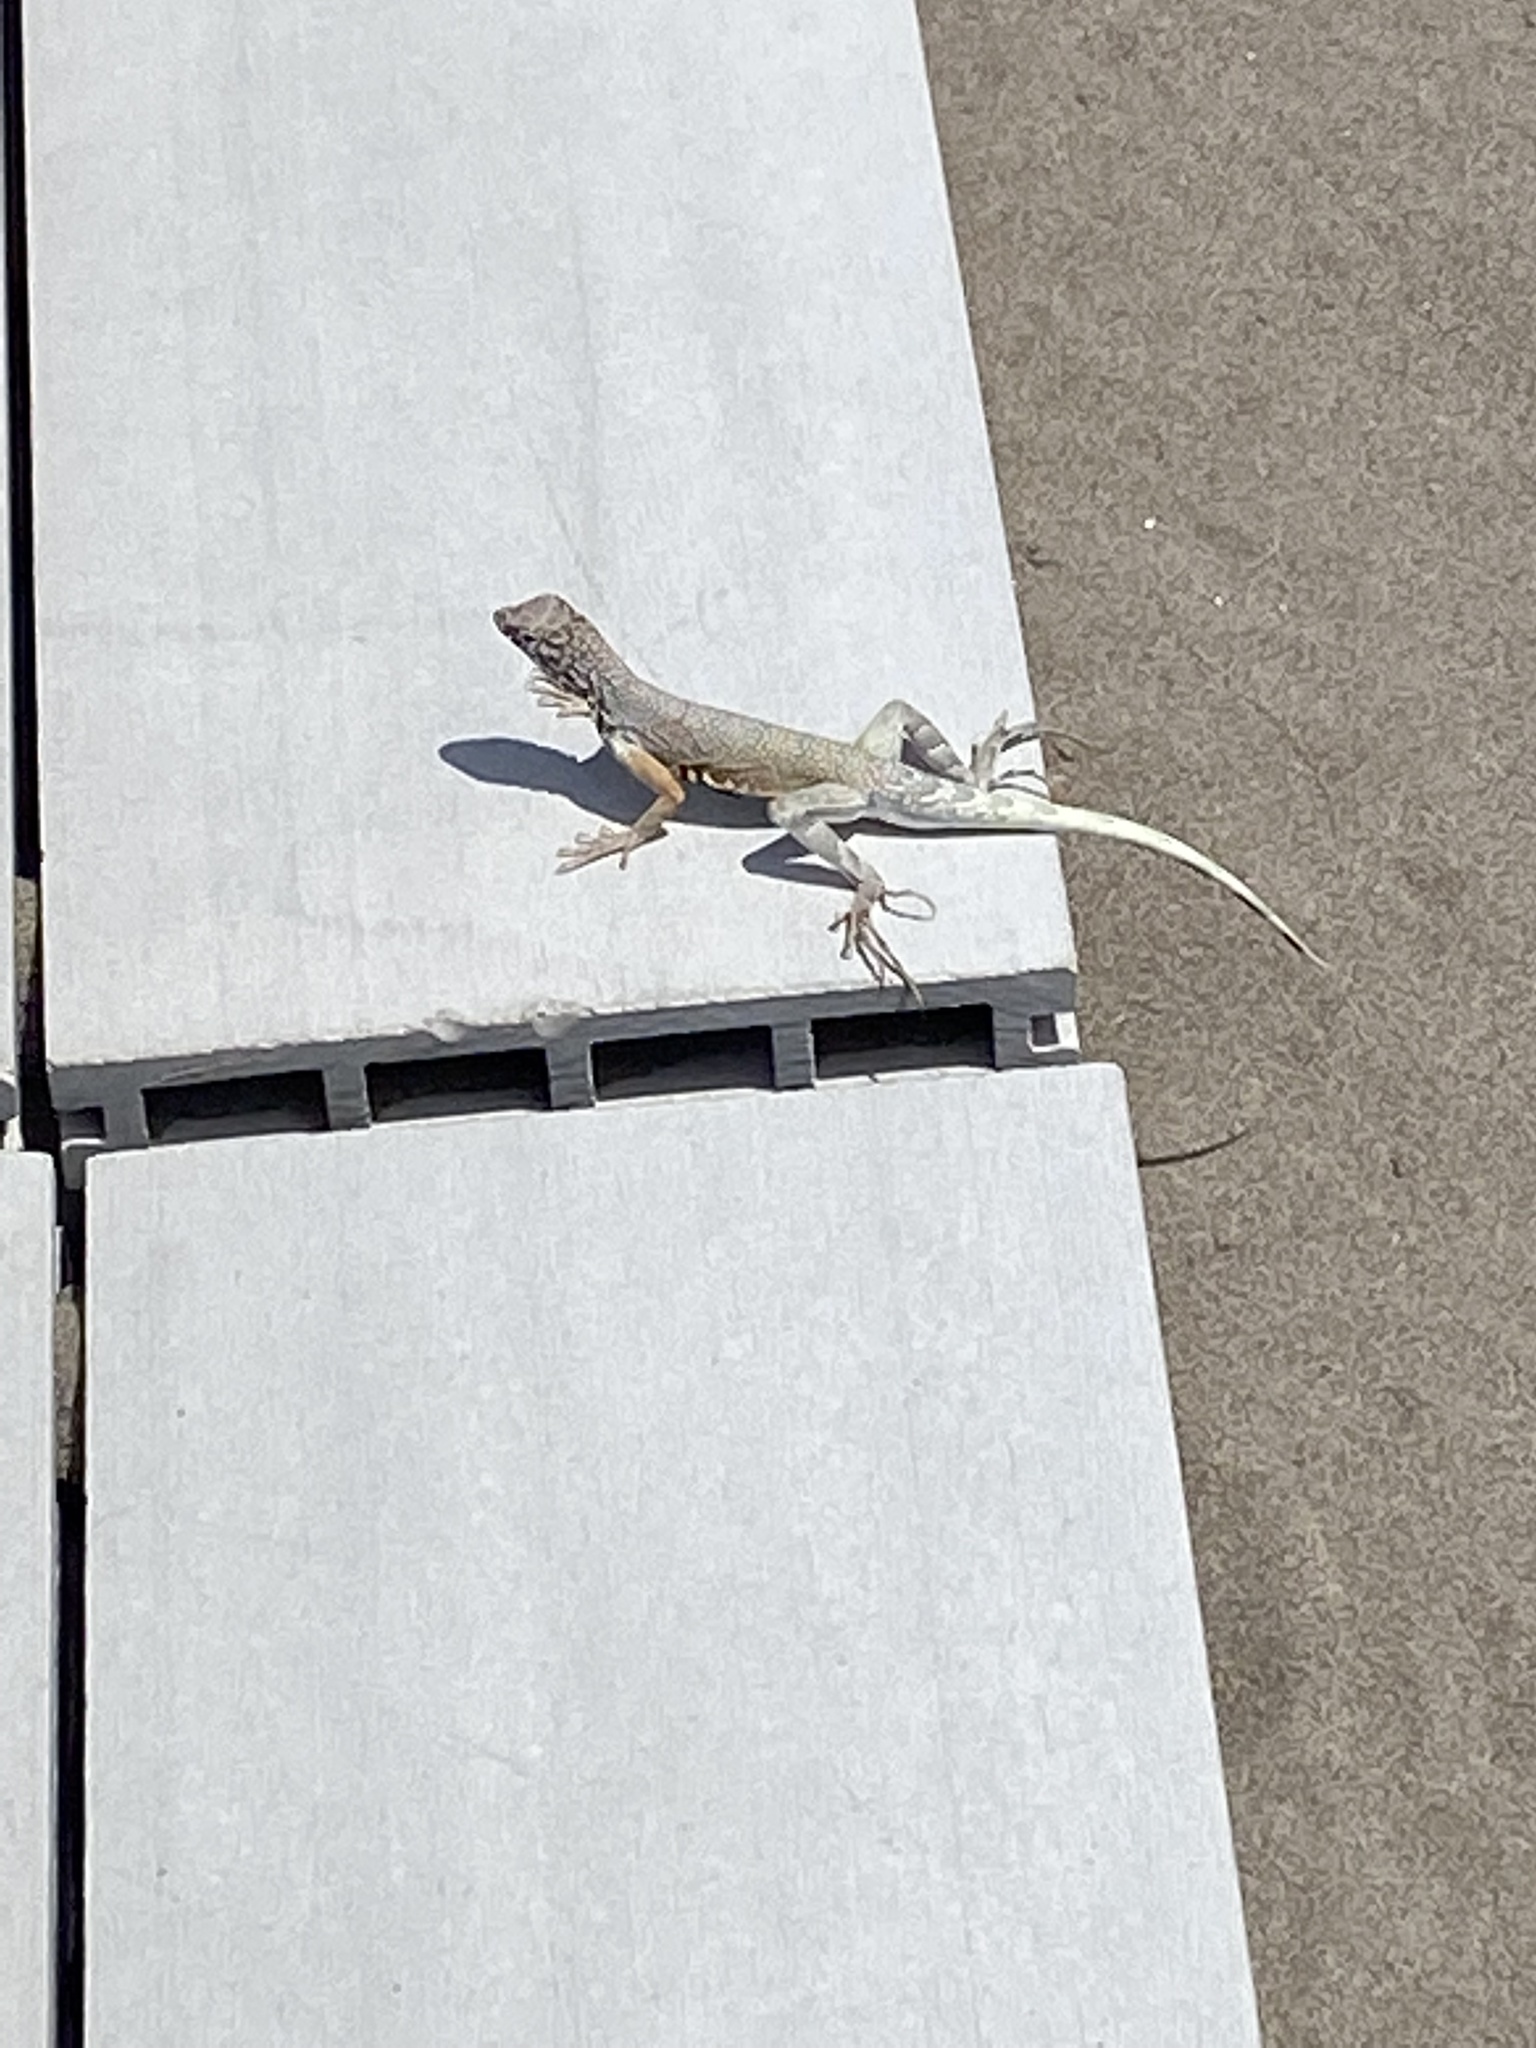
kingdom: Animalia
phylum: Chordata
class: Squamata
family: Phrynosomatidae
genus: Callisaurus
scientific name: Callisaurus draconoides
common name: Zebra-tailed lizard
